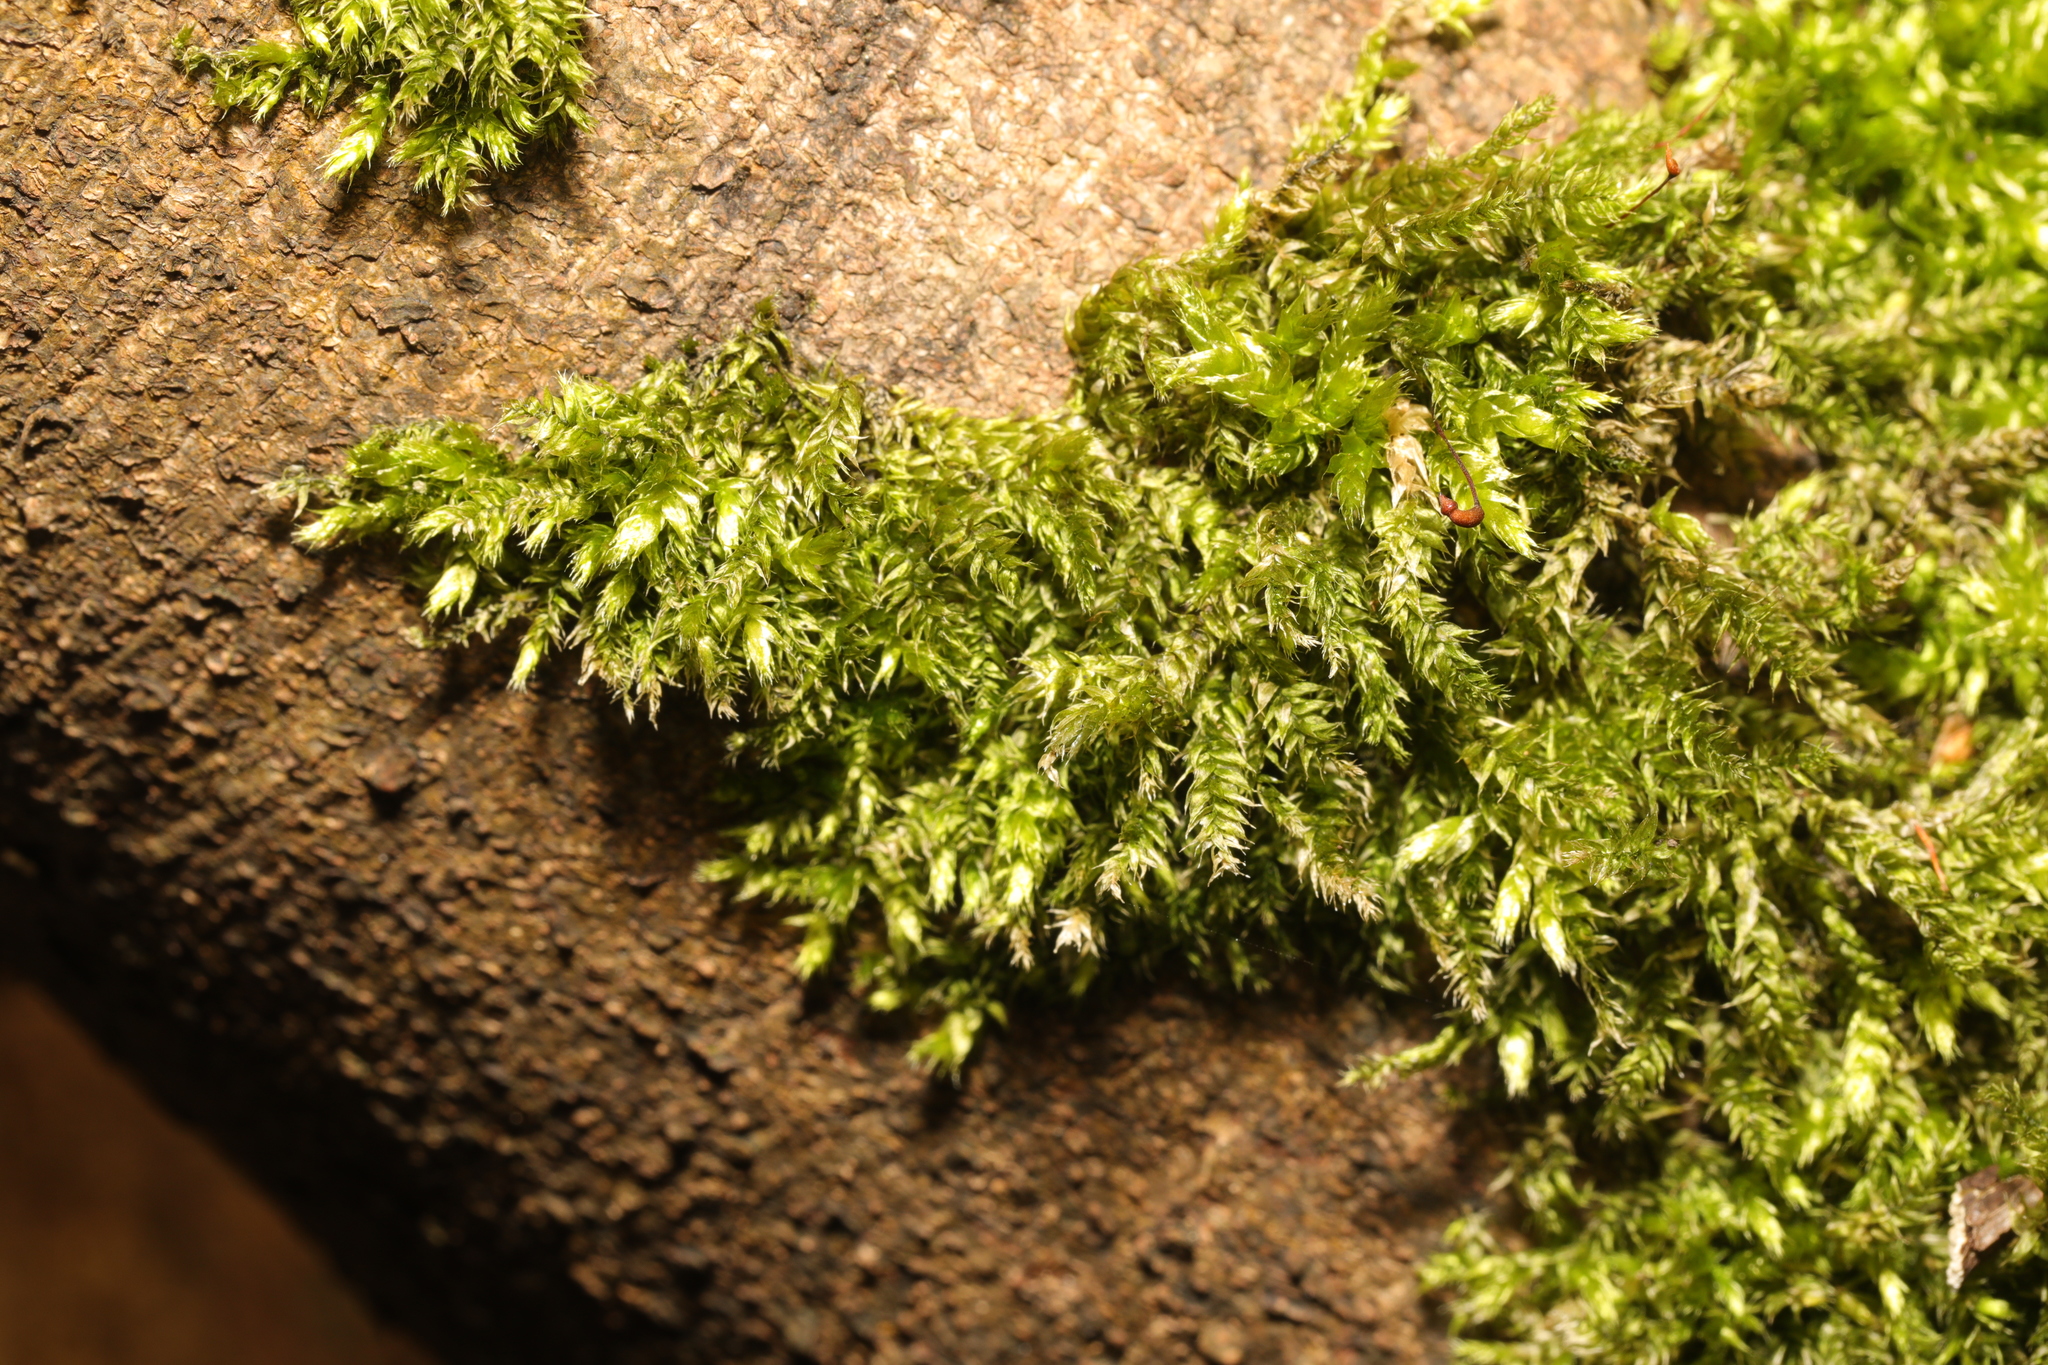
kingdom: Plantae
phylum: Bryophyta
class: Bryopsida
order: Hypnales
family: Brachytheciaceae
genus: Brachythecium
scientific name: Brachythecium rutabulum
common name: Rough-stalked feather-moss
